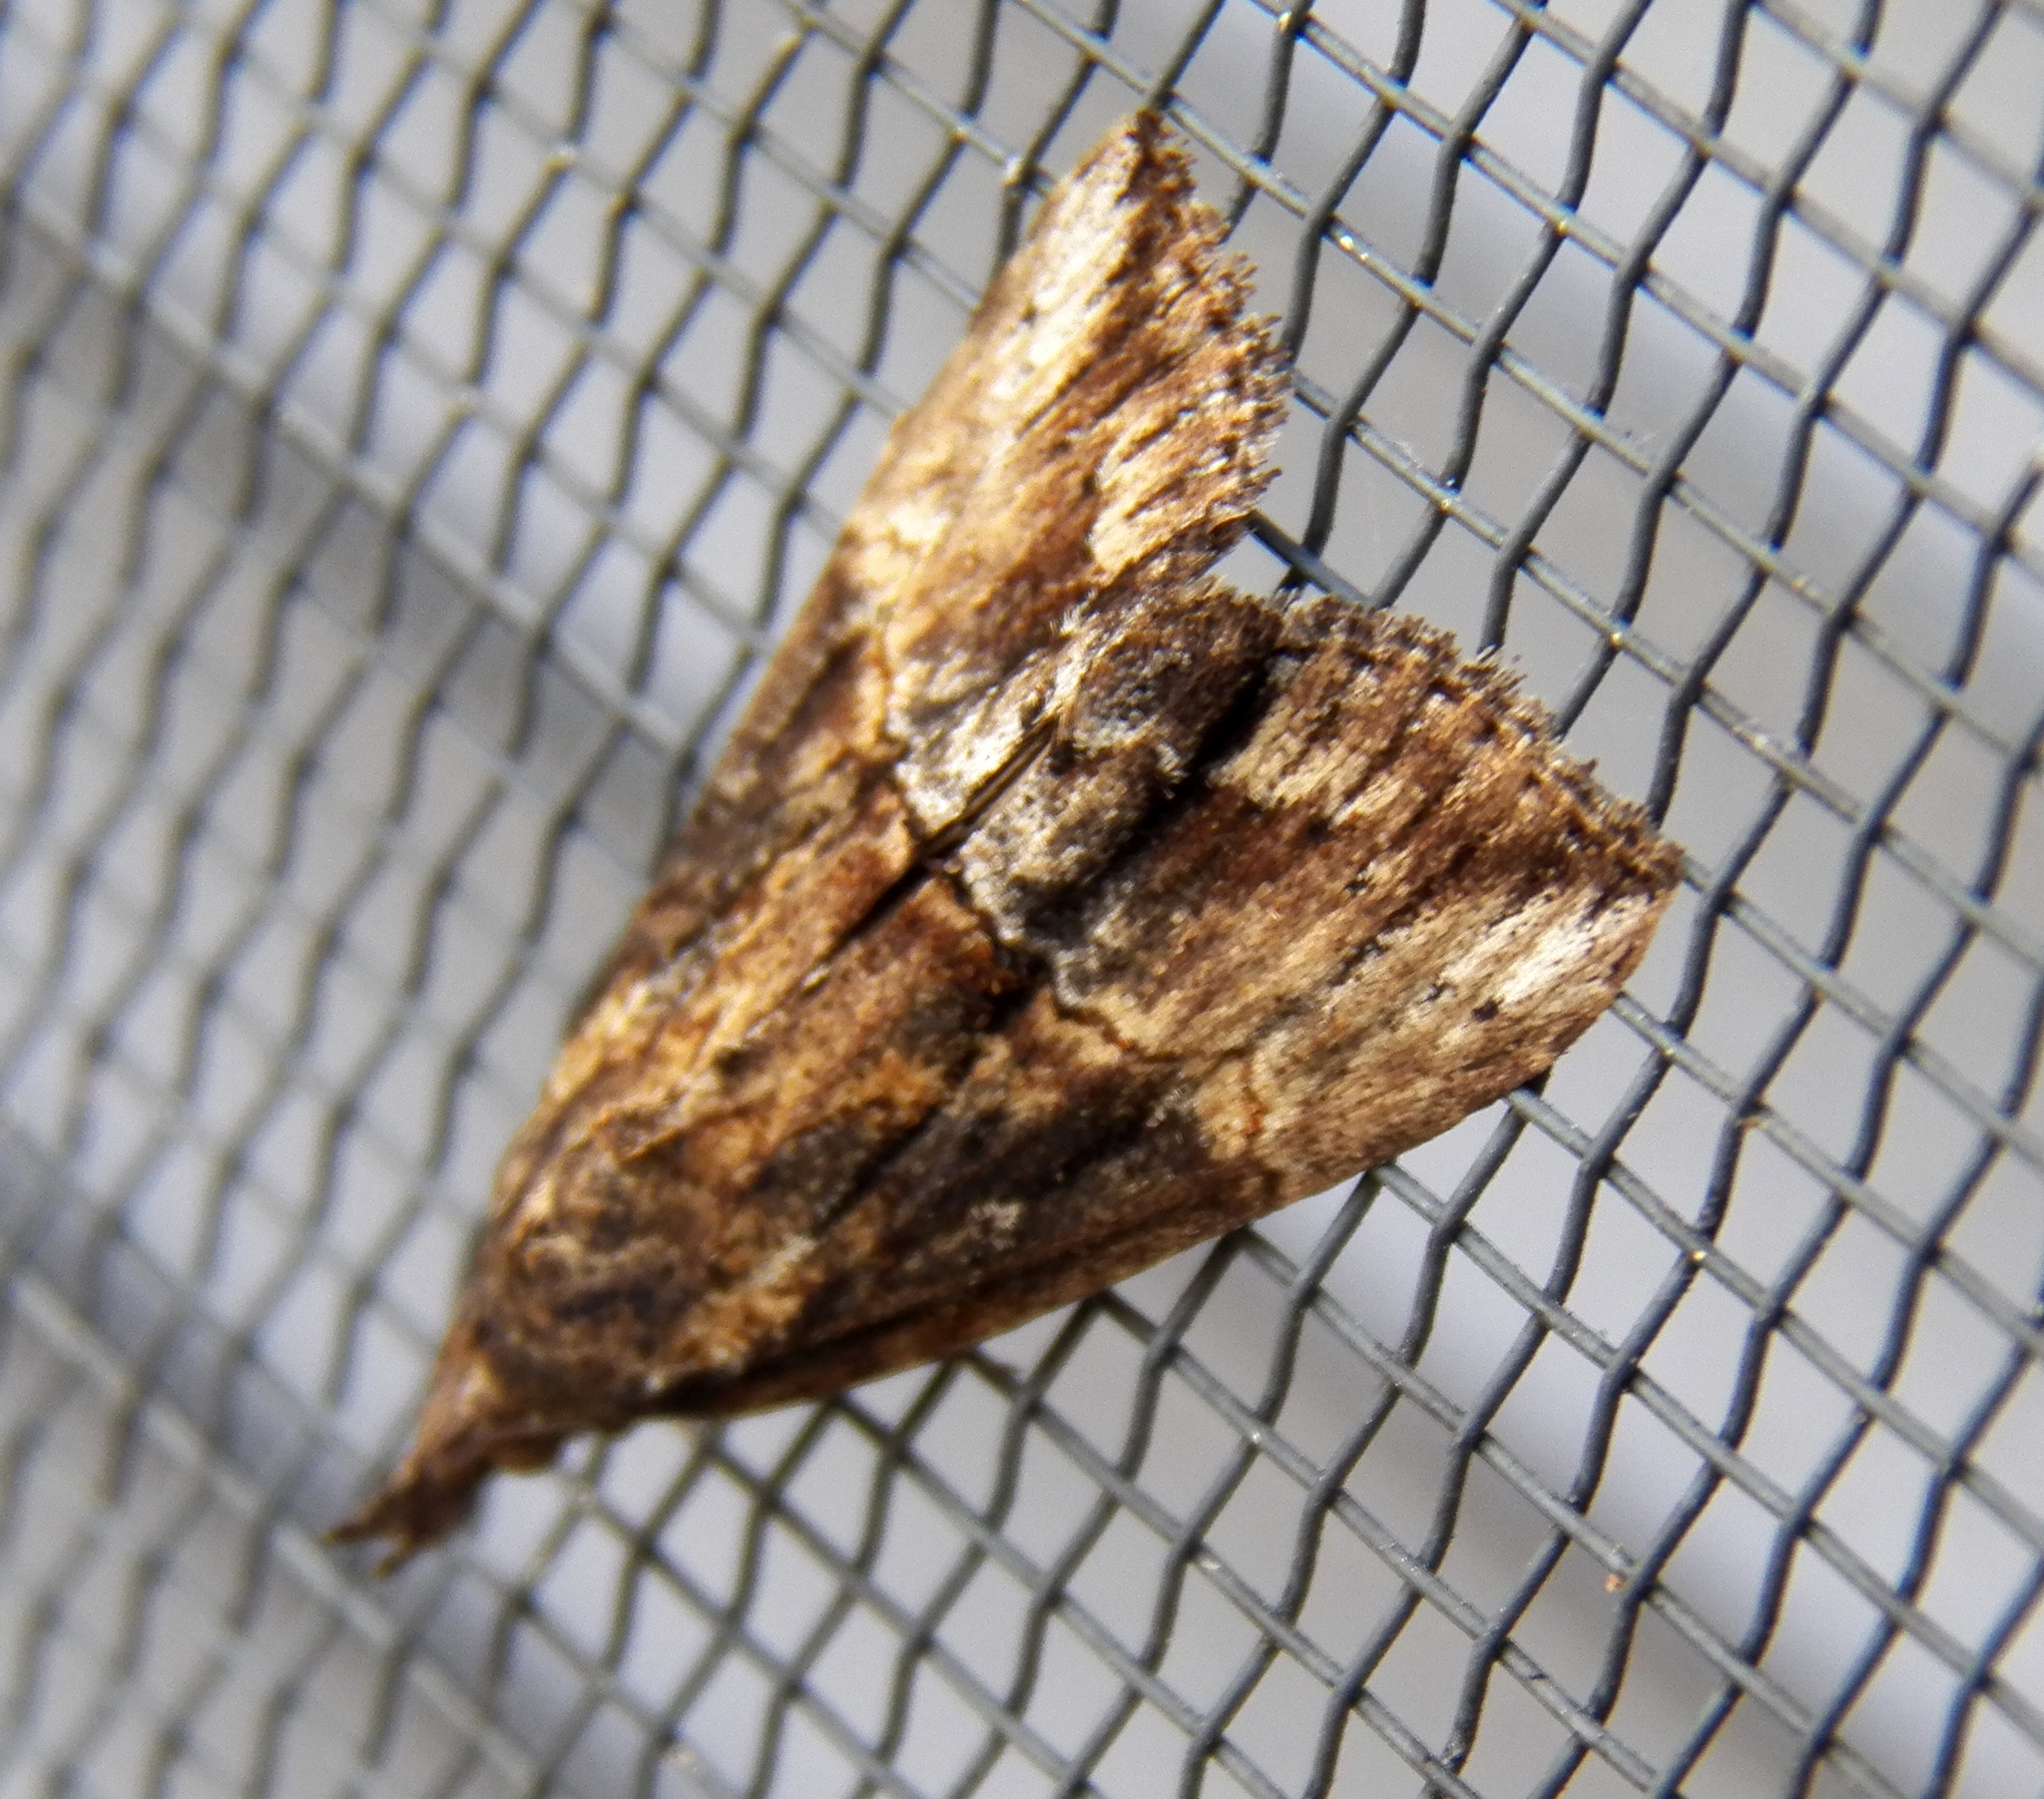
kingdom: Animalia
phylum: Arthropoda
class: Insecta
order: Lepidoptera
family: Erebidae
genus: Hypena
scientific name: Hypena scabra
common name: Green cloverworm
